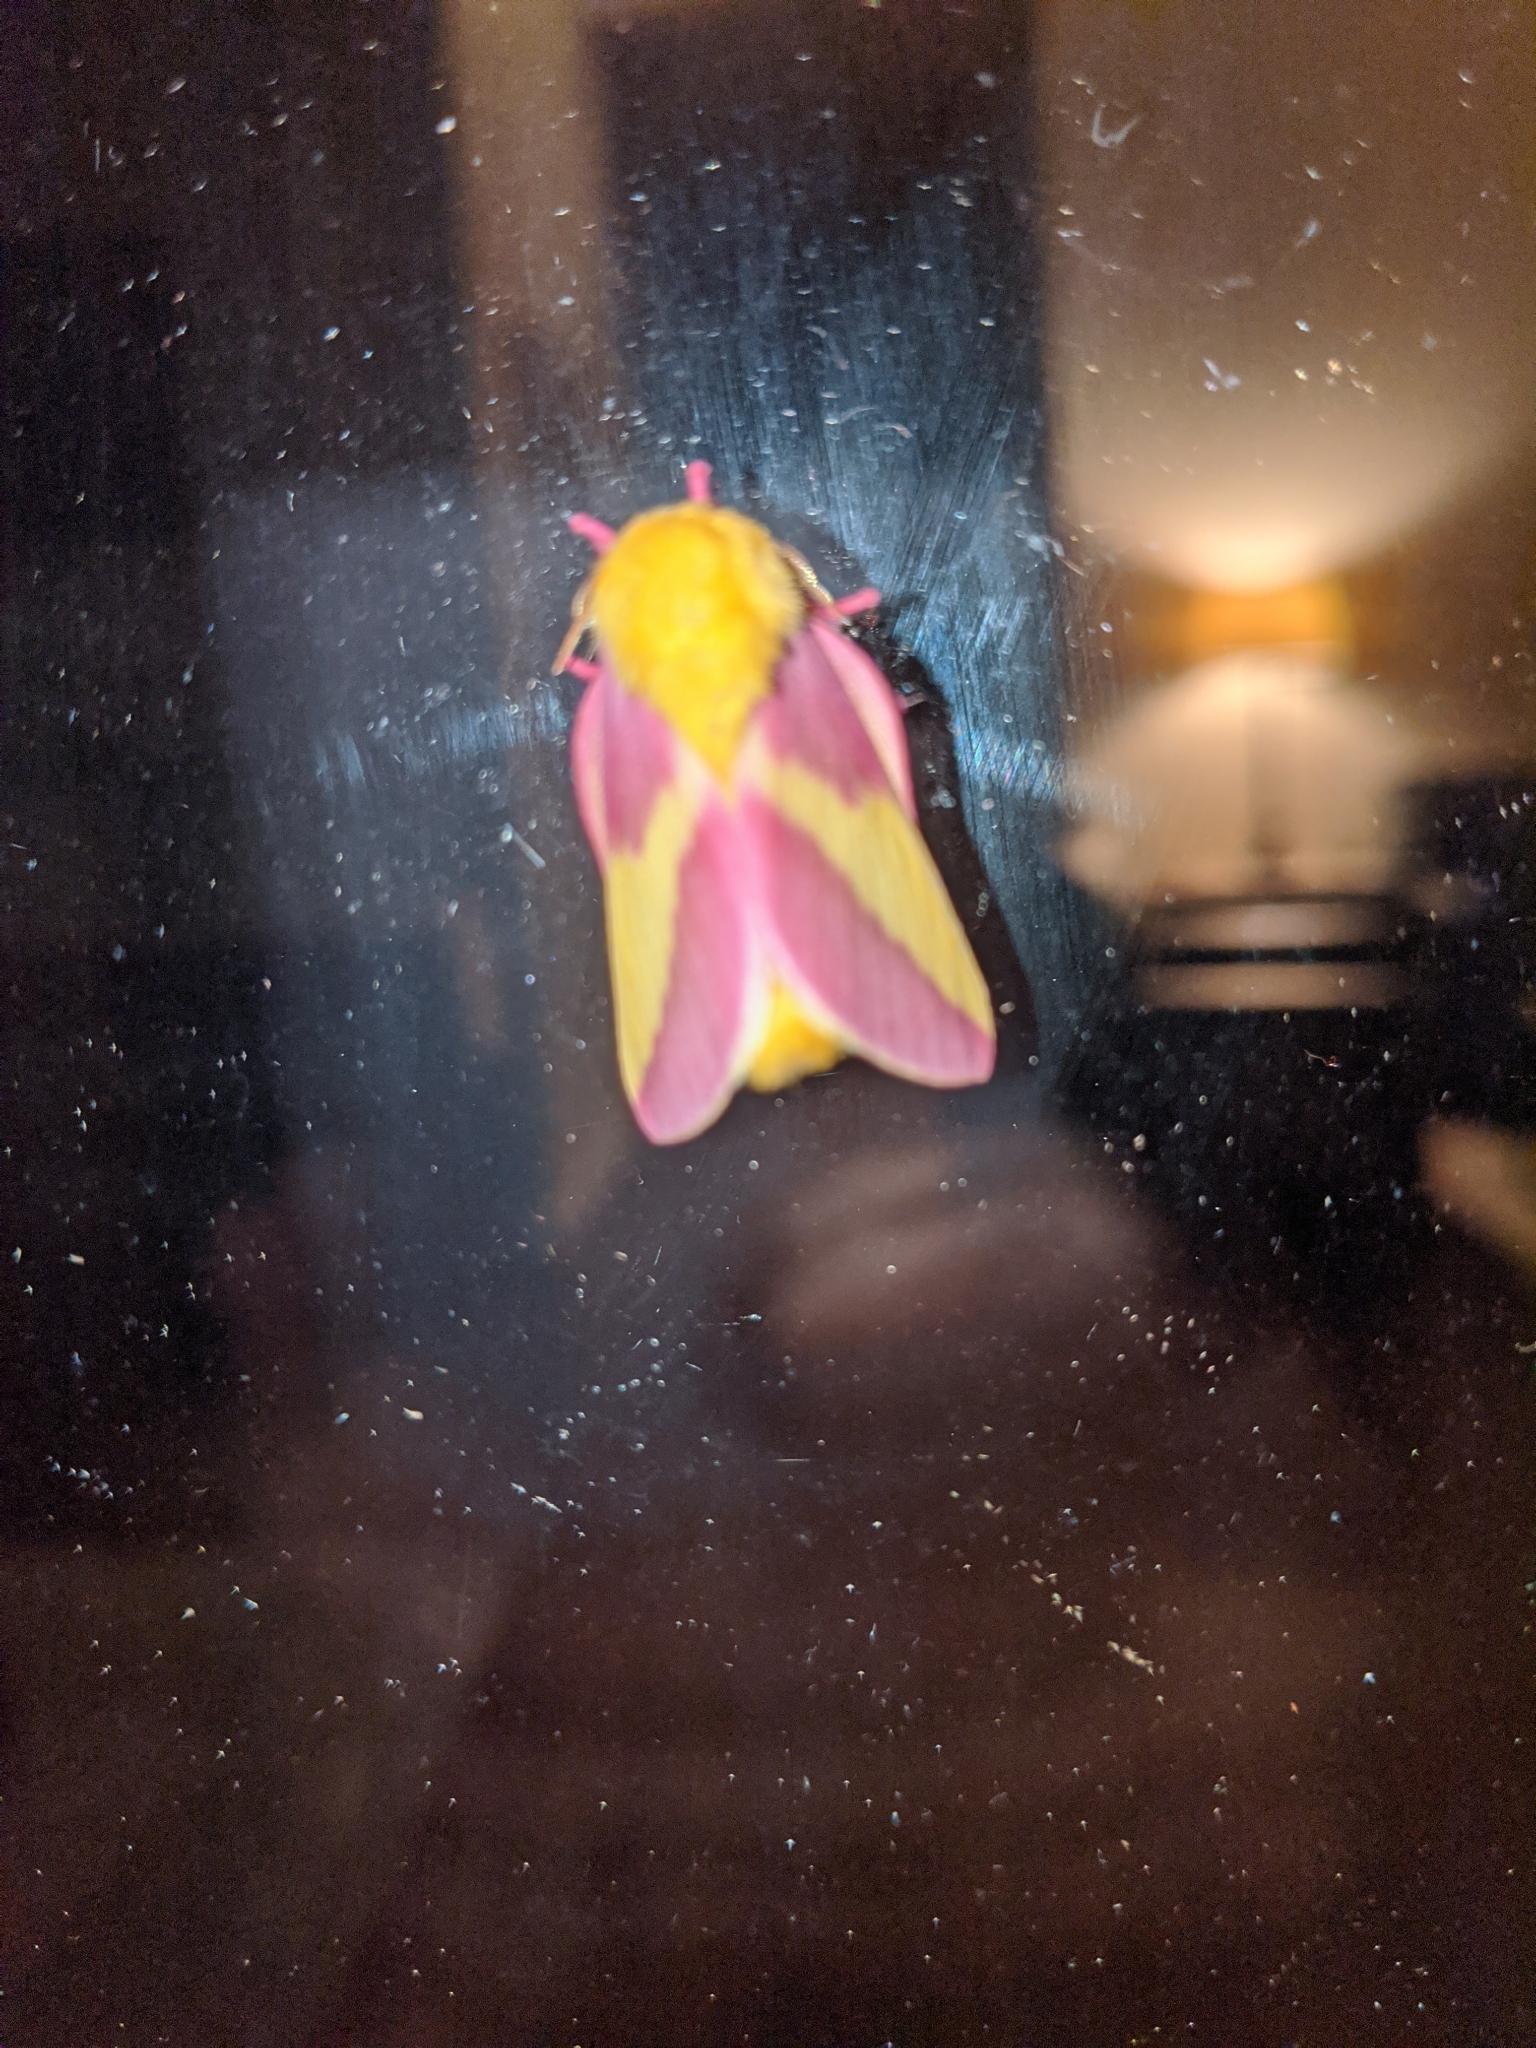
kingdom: Animalia
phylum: Arthropoda
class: Insecta
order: Lepidoptera
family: Saturniidae
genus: Dryocampa
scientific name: Dryocampa rubicunda
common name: Rosy maple moth
